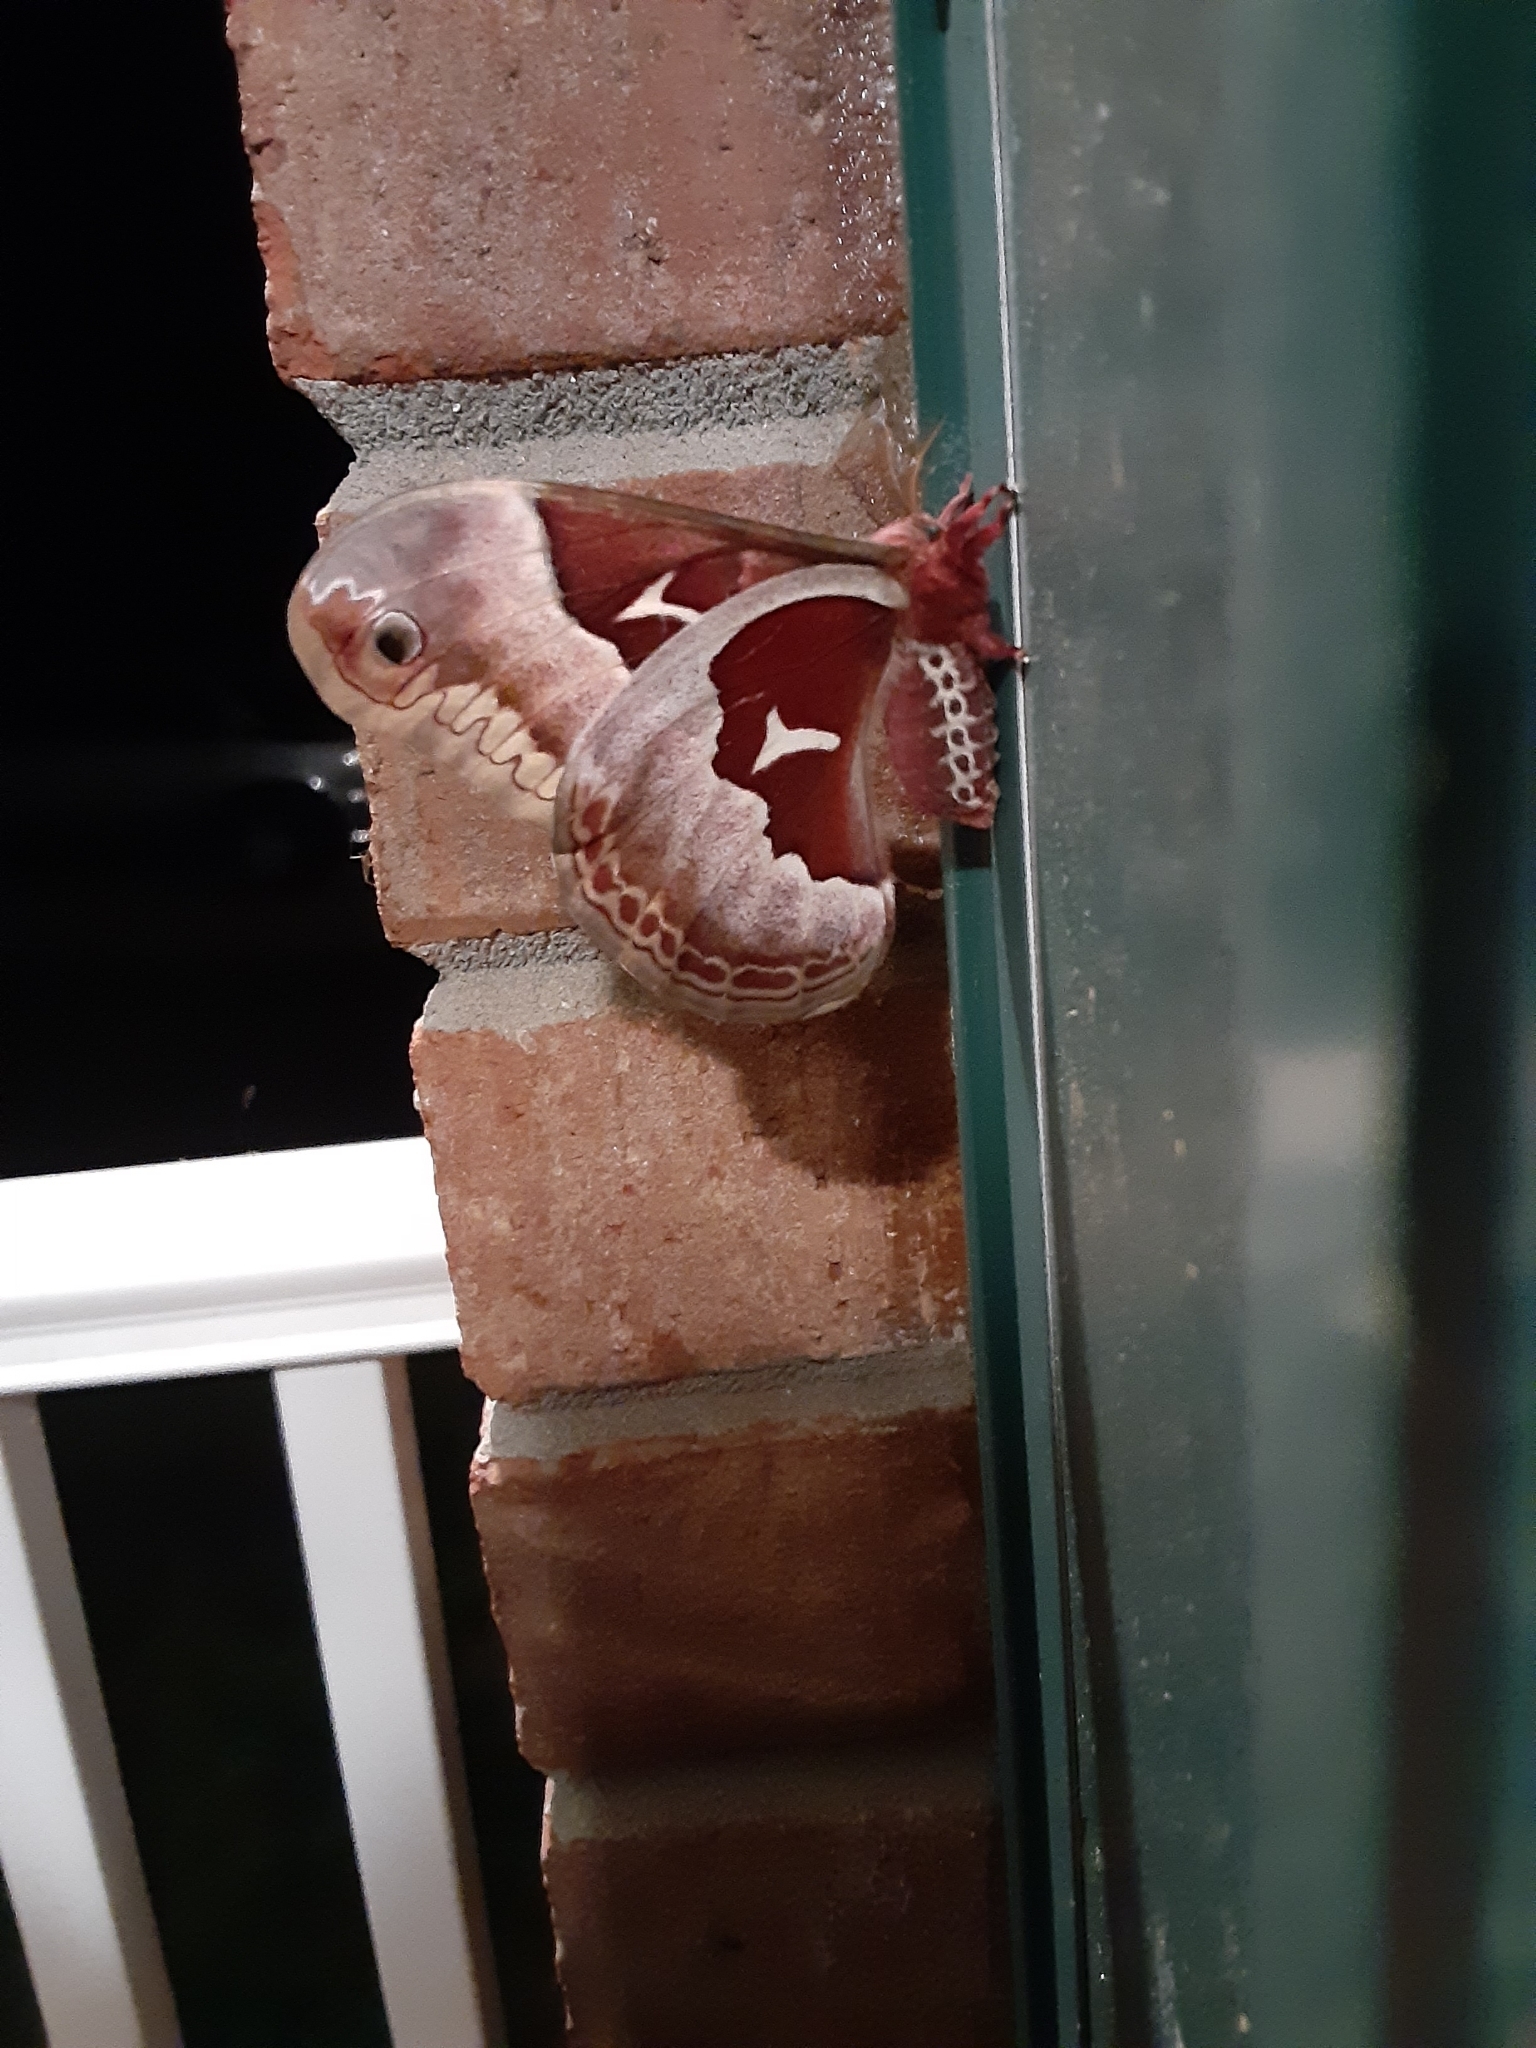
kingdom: Animalia
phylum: Arthropoda
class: Insecta
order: Lepidoptera
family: Saturniidae
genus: Callosamia
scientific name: Callosamia promethea
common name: Promethea silkmoth
